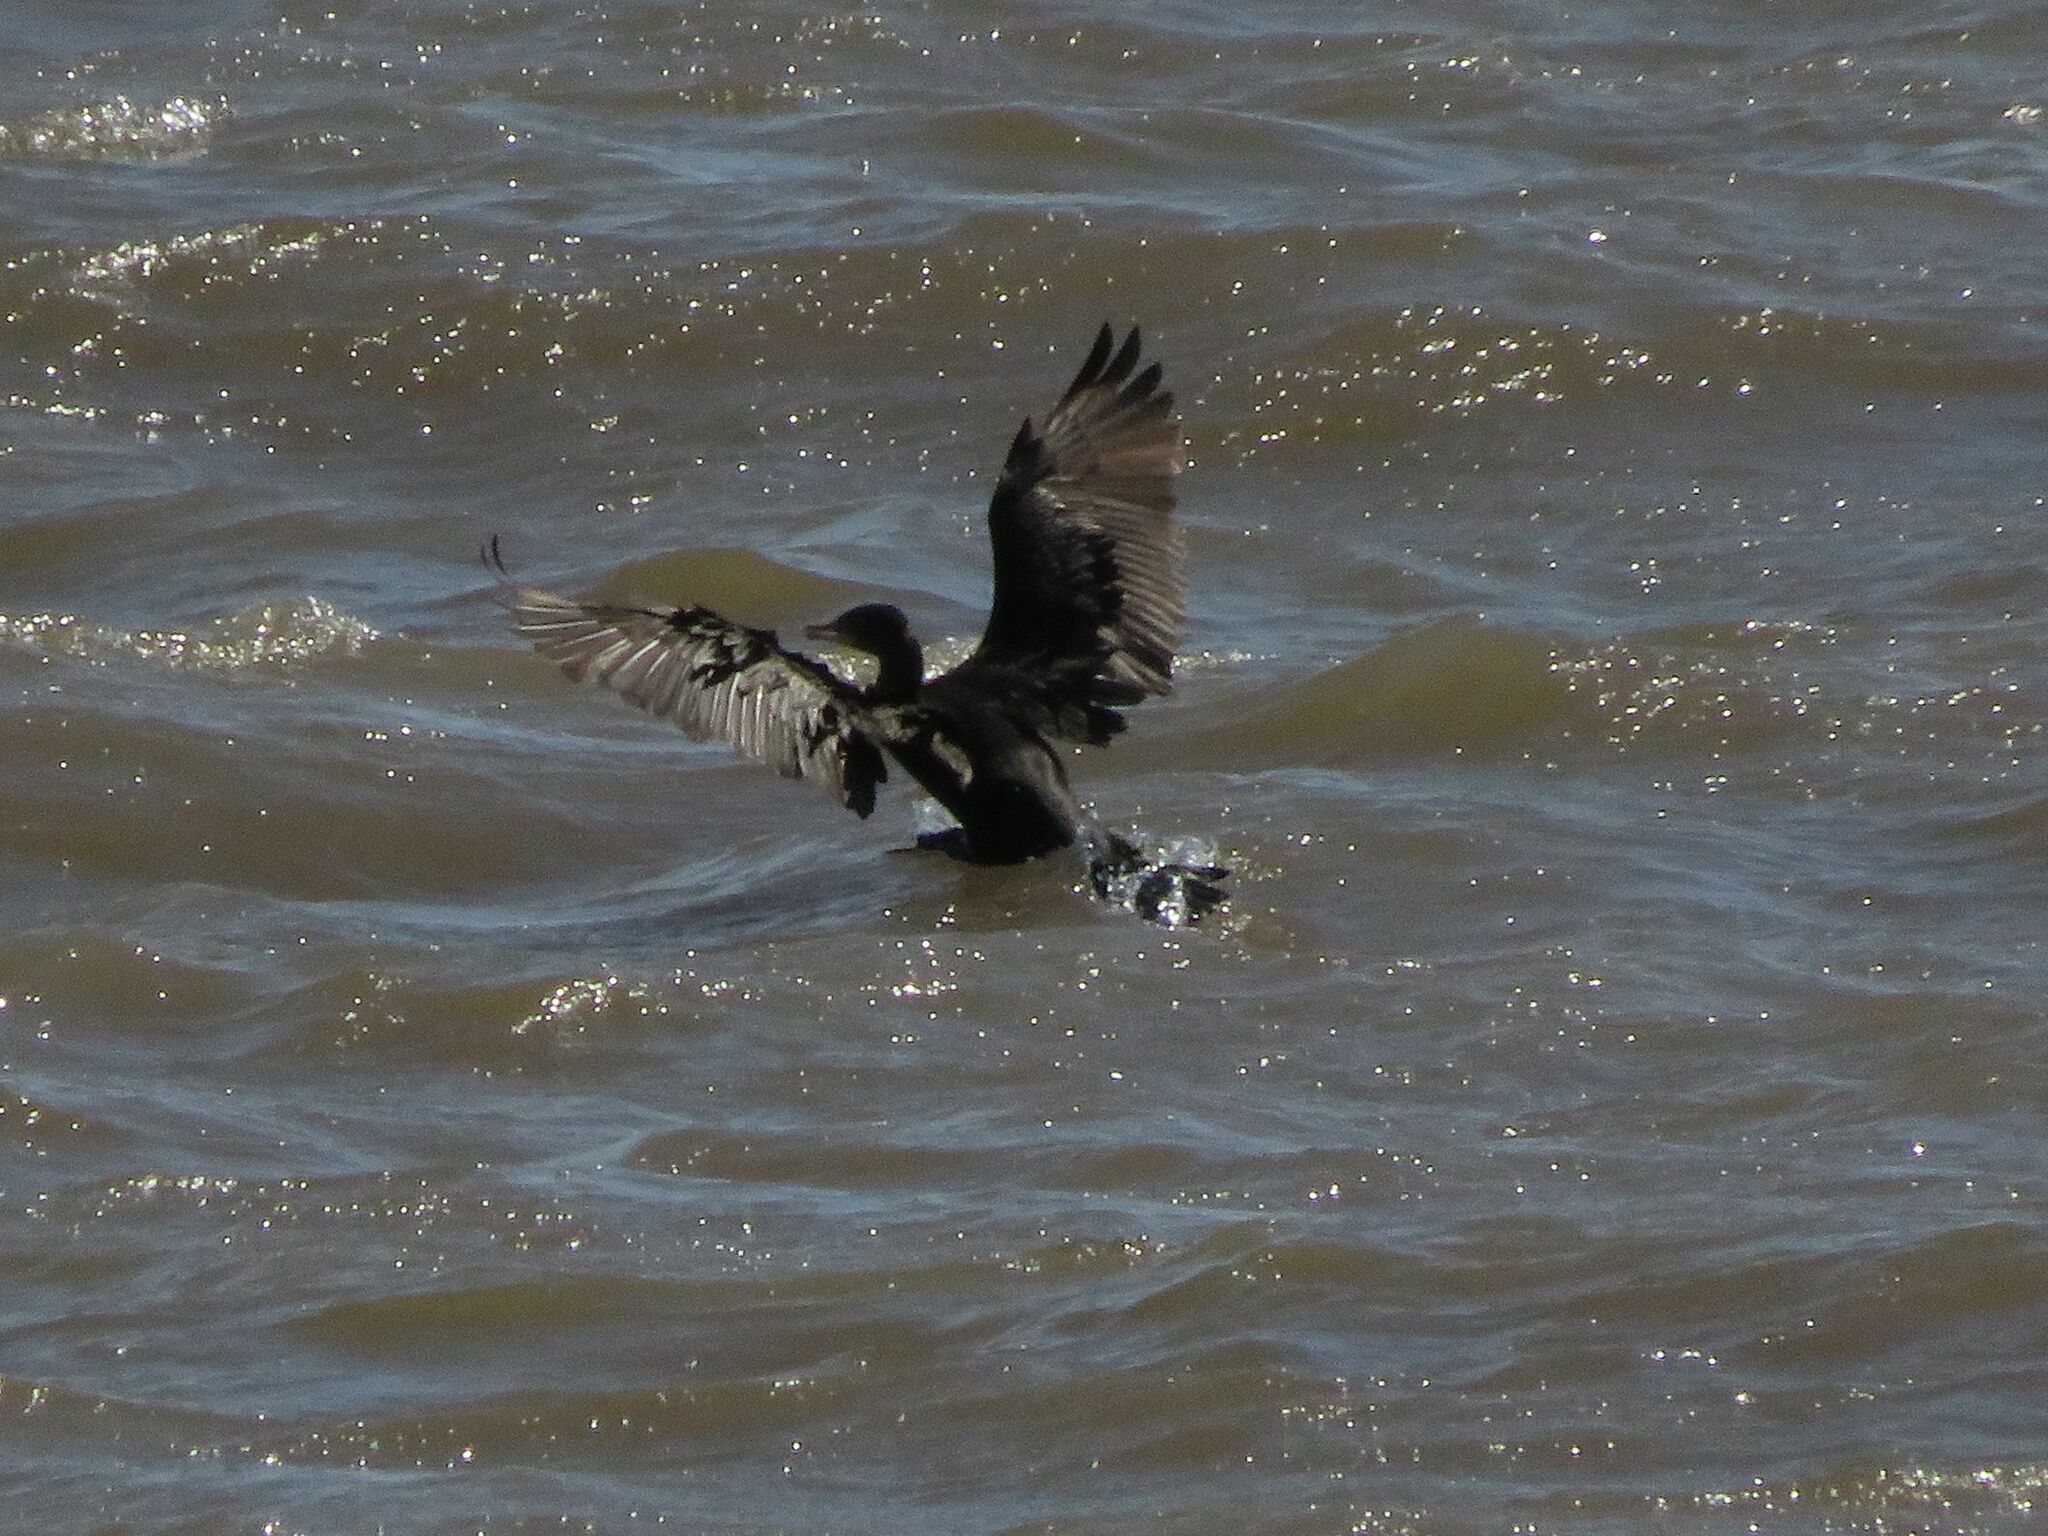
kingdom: Animalia
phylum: Chordata
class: Aves
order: Suliformes
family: Phalacrocoracidae
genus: Phalacrocorax
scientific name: Phalacrocorax brasilianus
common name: Neotropic cormorant
